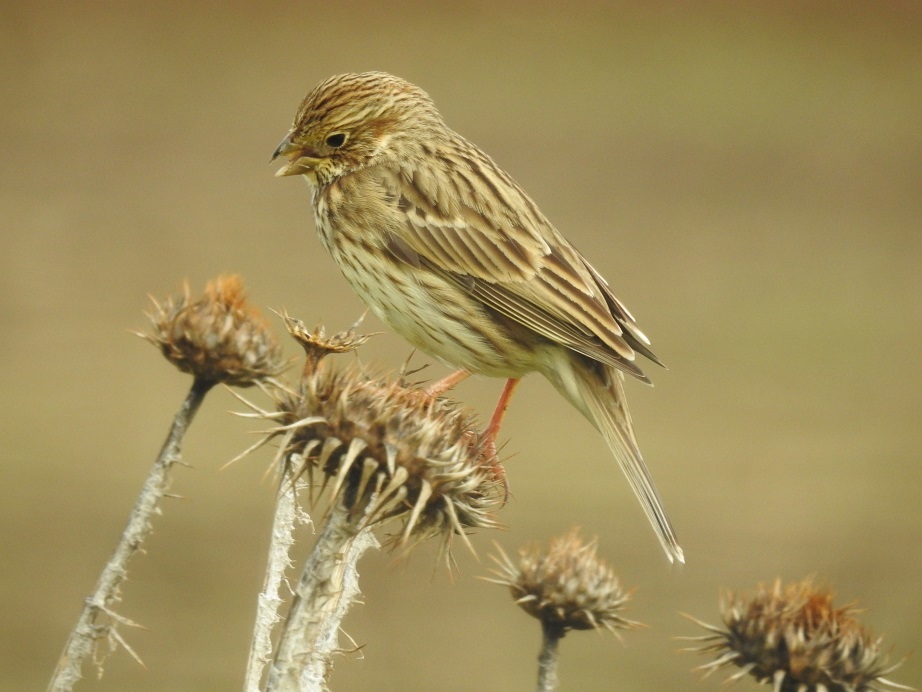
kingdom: Animalia
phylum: Chordata
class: Aves
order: Passeriformes
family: Emberizidae
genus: Emberiza
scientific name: Emberiza calandra
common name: Corn bunting
